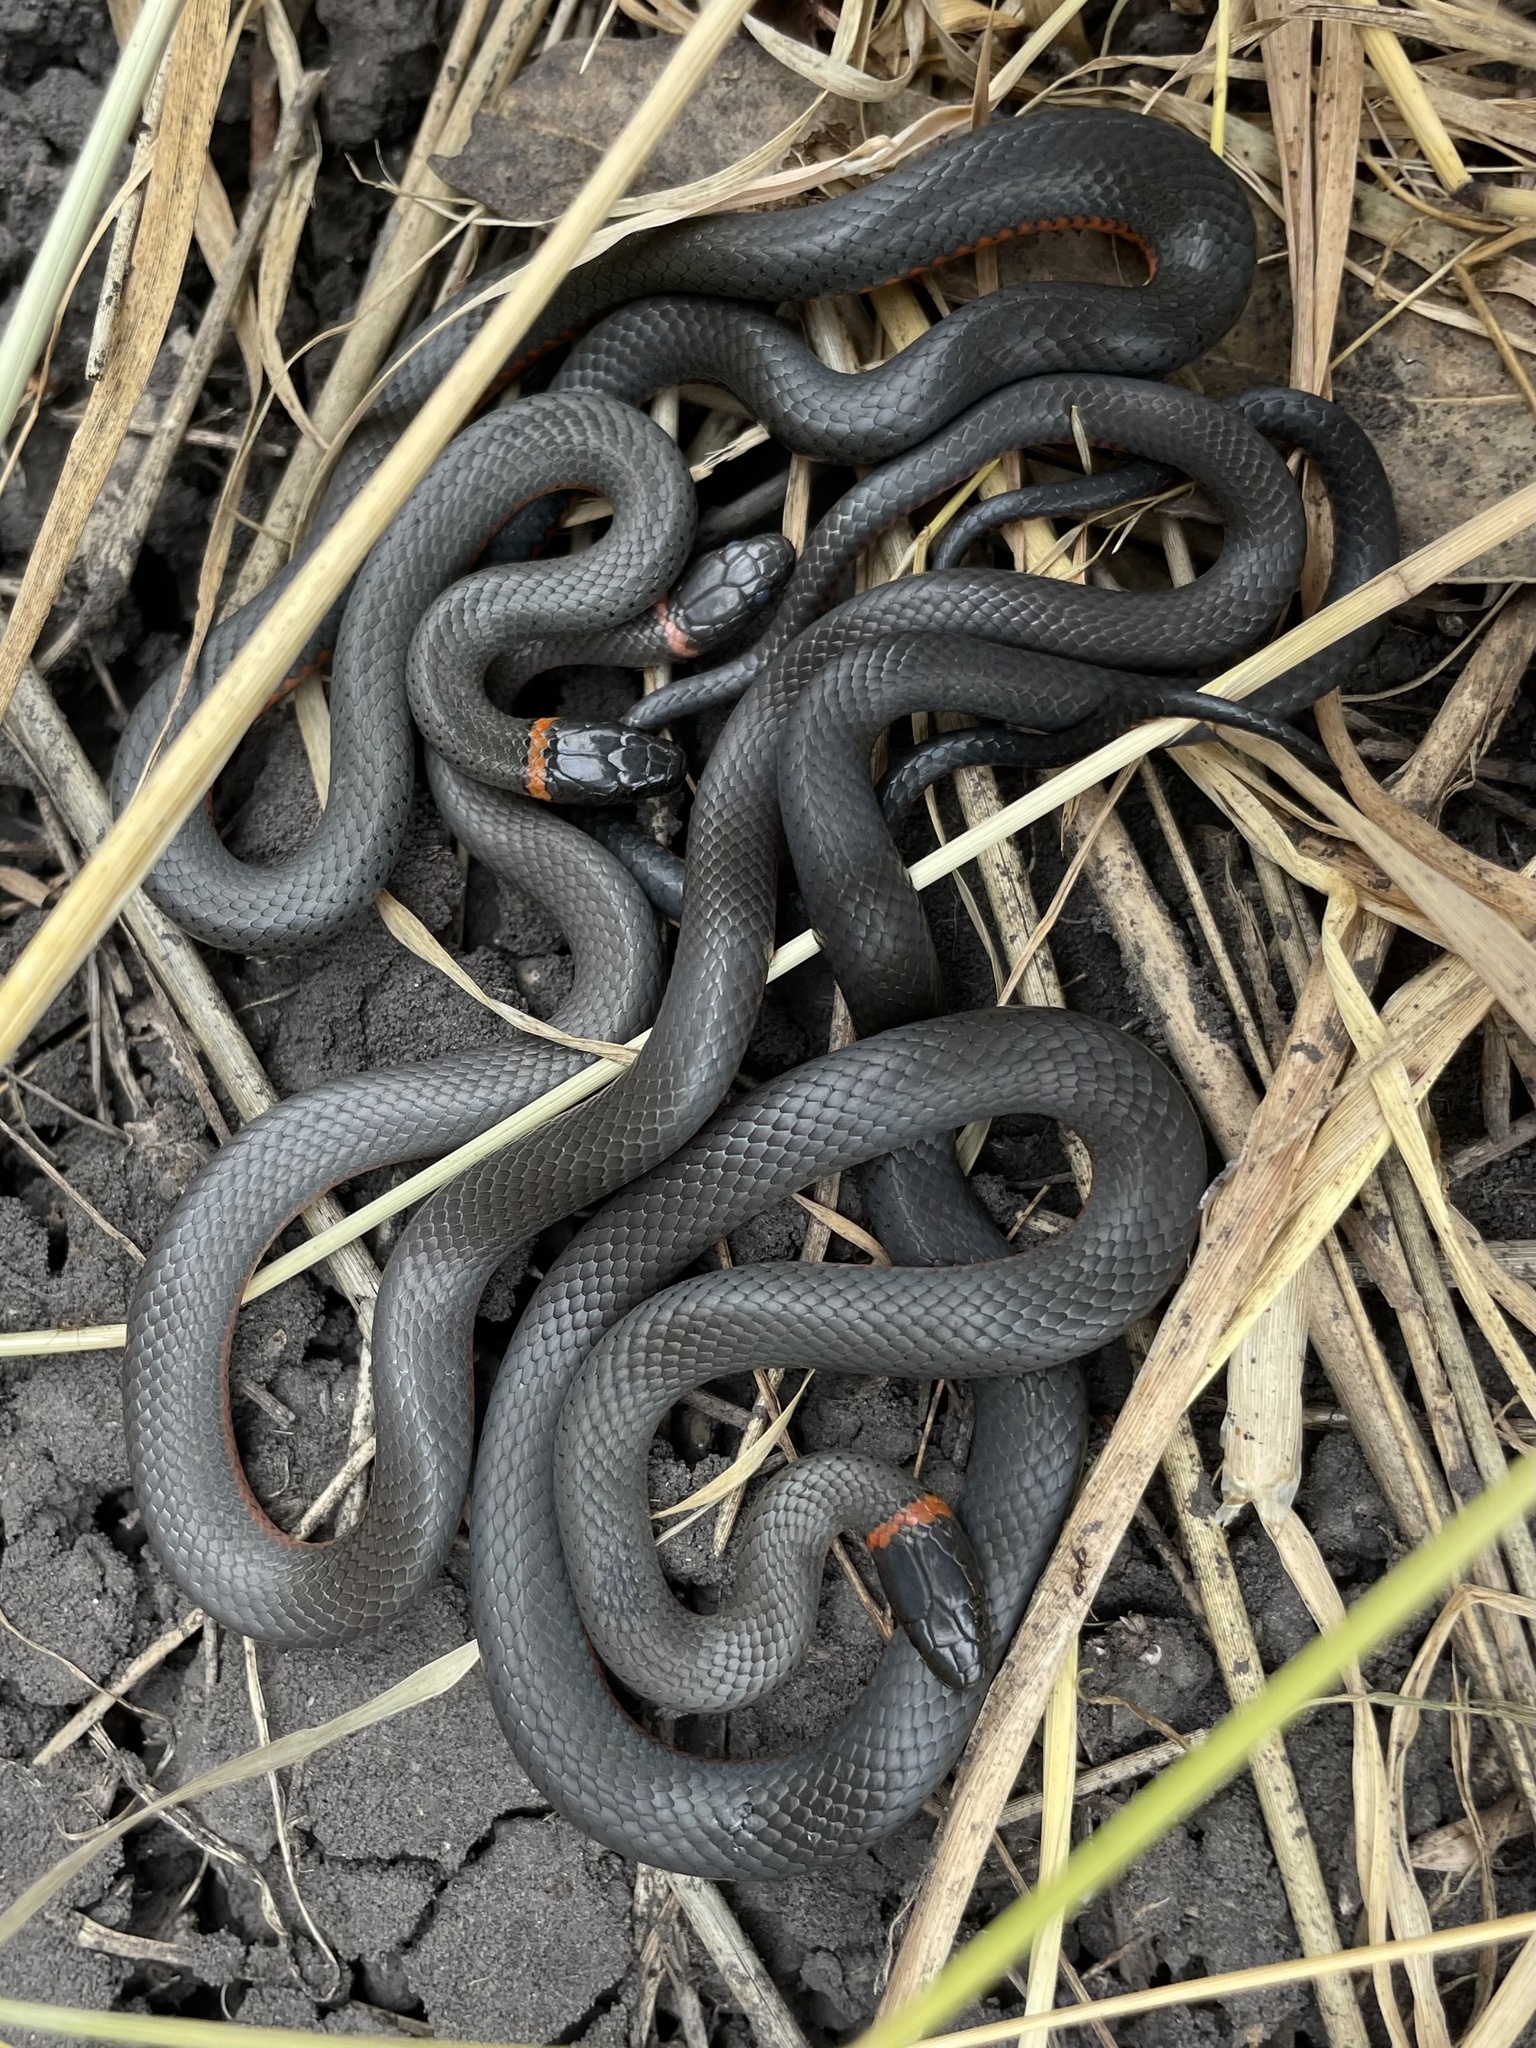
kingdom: Animalia
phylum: Chordata
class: Squamata
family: Colubridae
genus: Diadophis
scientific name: Diadophis punctatus
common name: Ringneck snake
